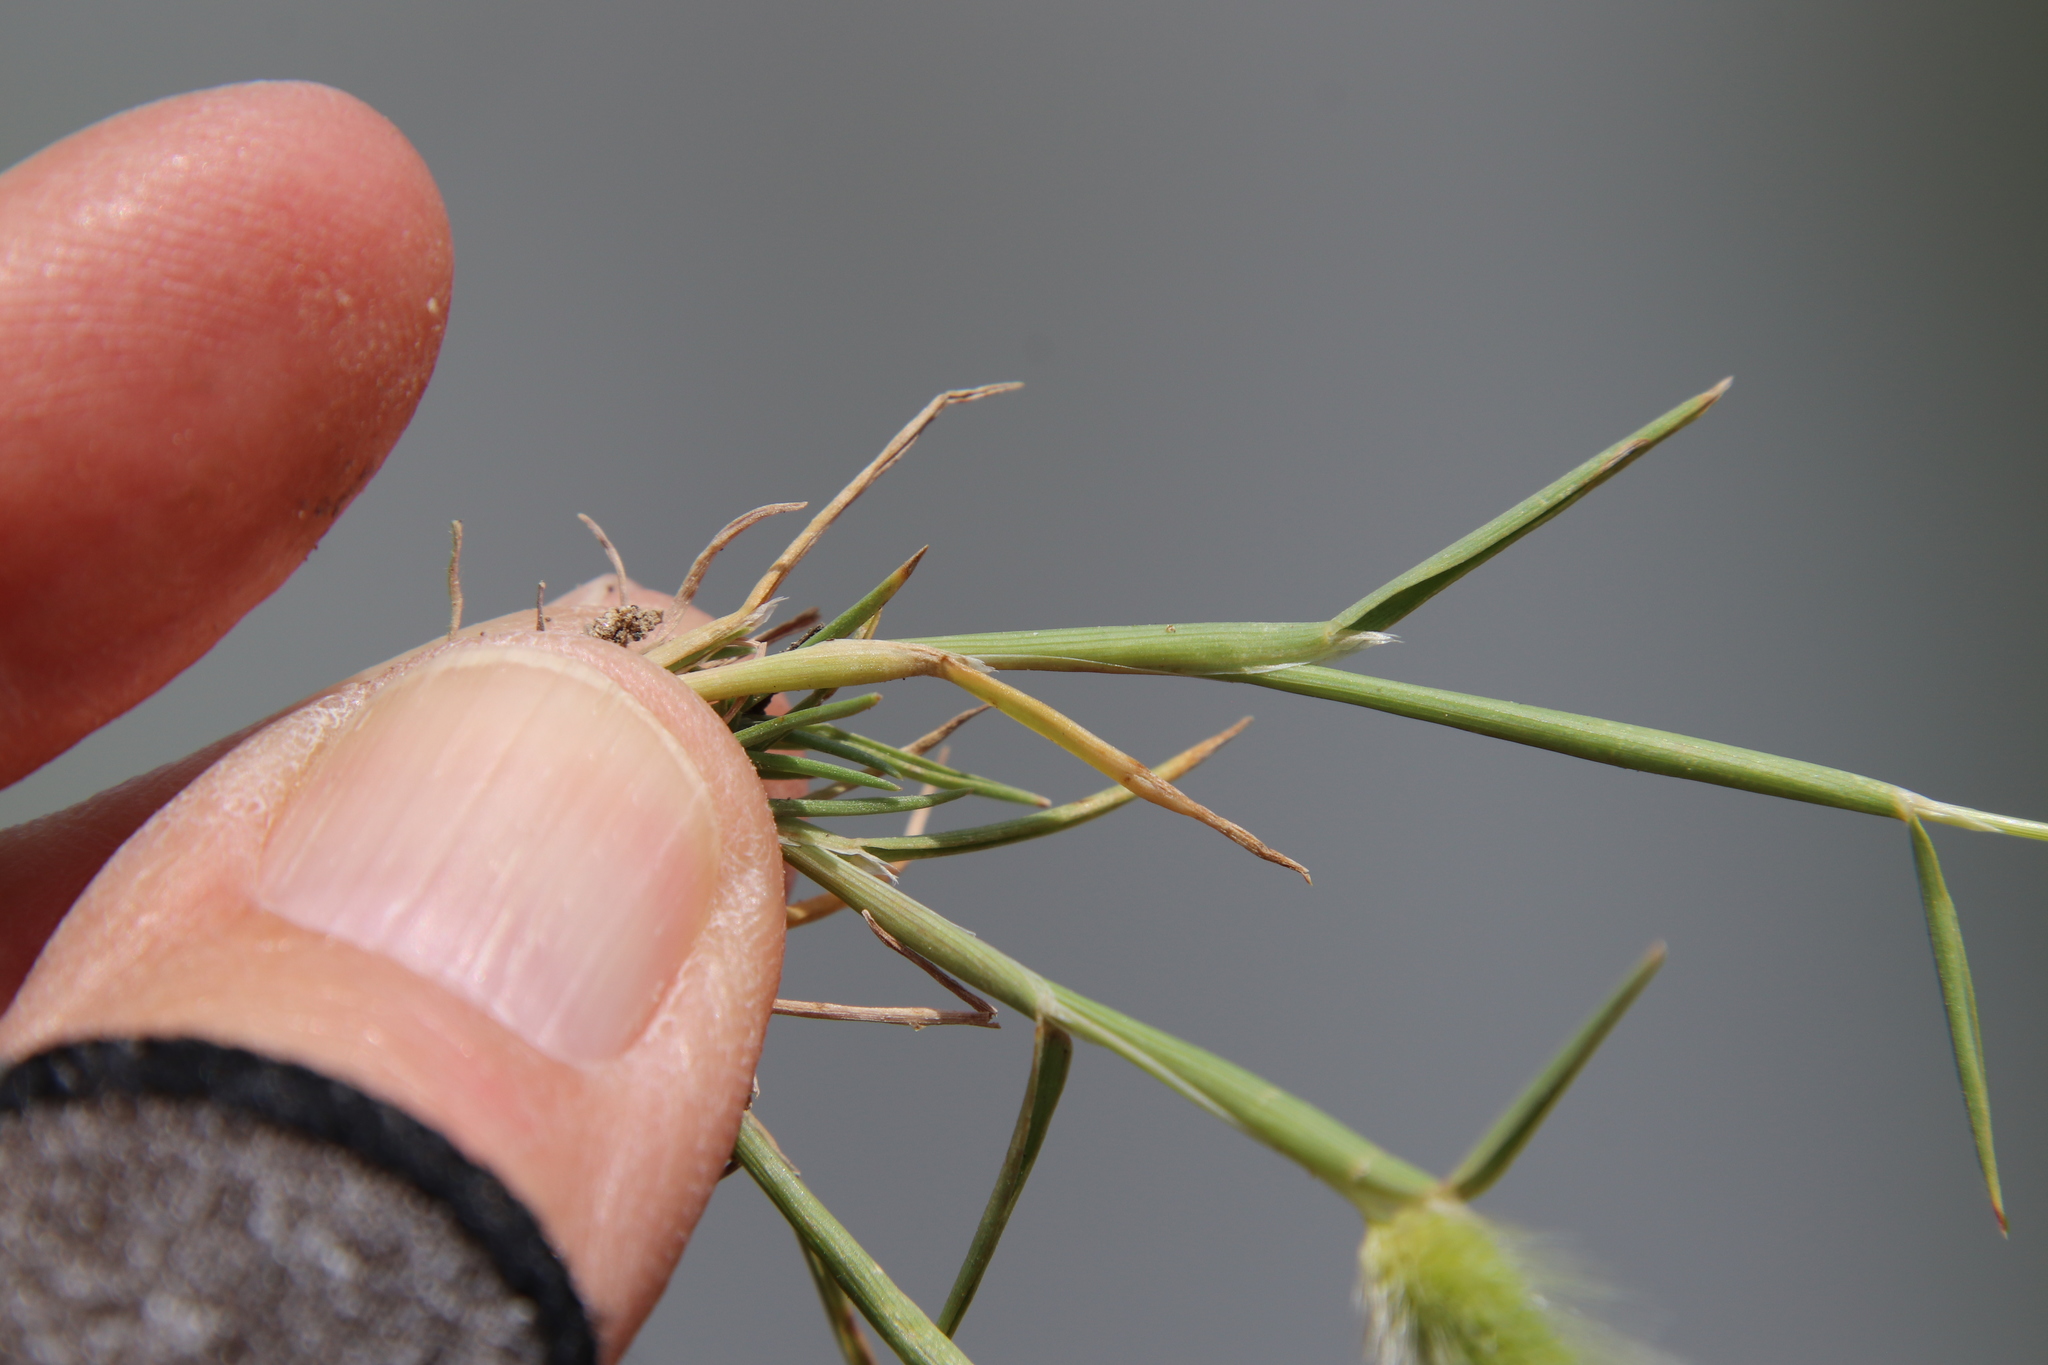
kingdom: Plantae
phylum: Tracheophyta
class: Liliopsida
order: Poales
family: Poaceae
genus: Polypogon
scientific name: Polypogon monspeliensis
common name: Annual rabbitsfoot grass
